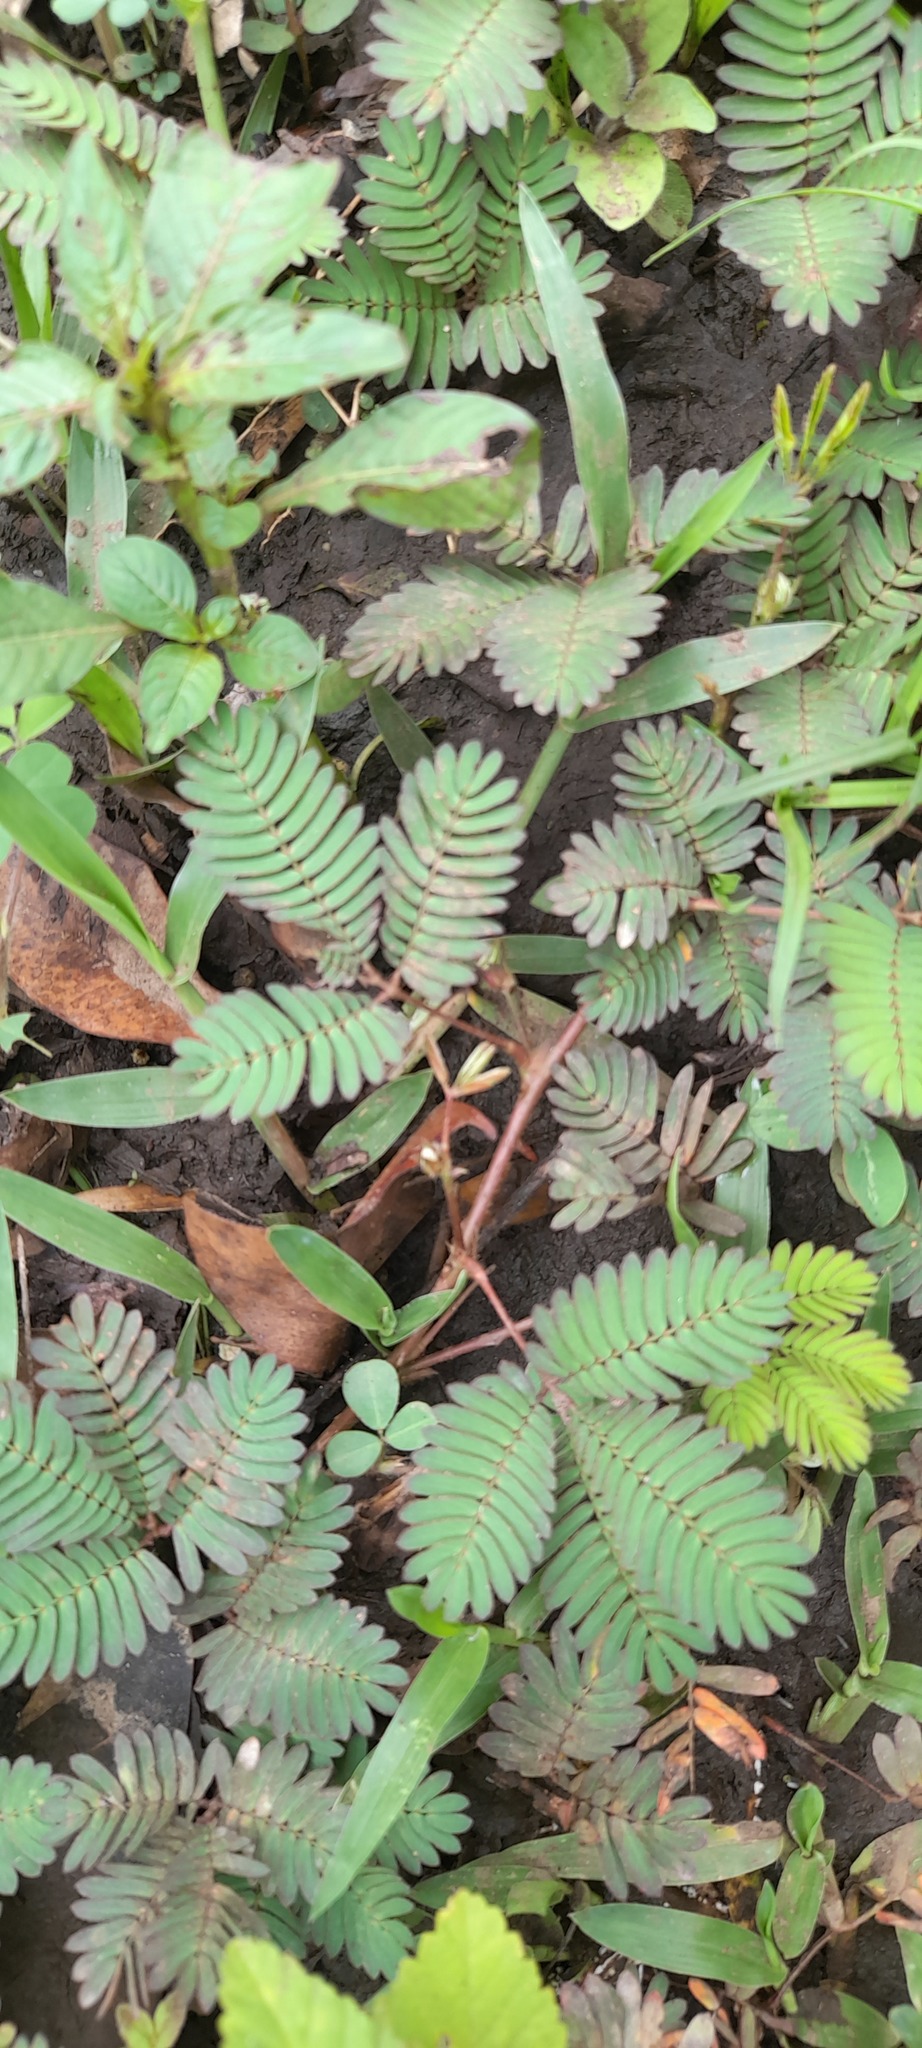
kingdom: Plantae
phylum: Tracheophyta
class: Magnoliopsida
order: Fabales
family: Fabaceae
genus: Mimosa
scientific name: Mimosa pudica
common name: Sensitive plant
